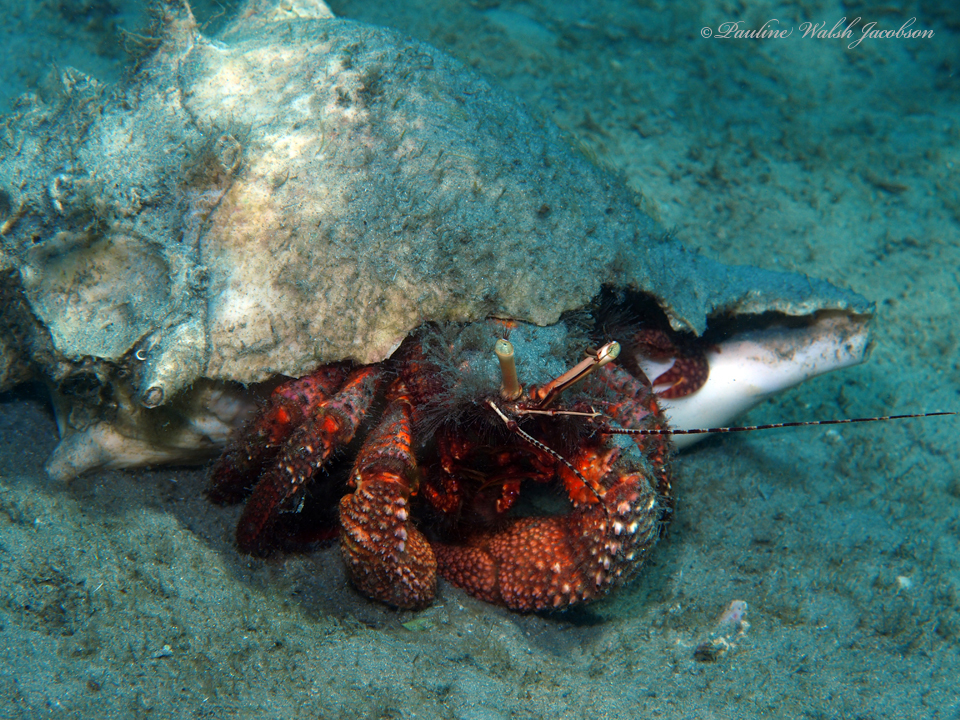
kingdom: Animalia
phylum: Arthropoda
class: Malacostraca
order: Decapoda
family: Diogenidae
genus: Petrochirus
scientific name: Petrochirus diogenes
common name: Giant hermit crab
